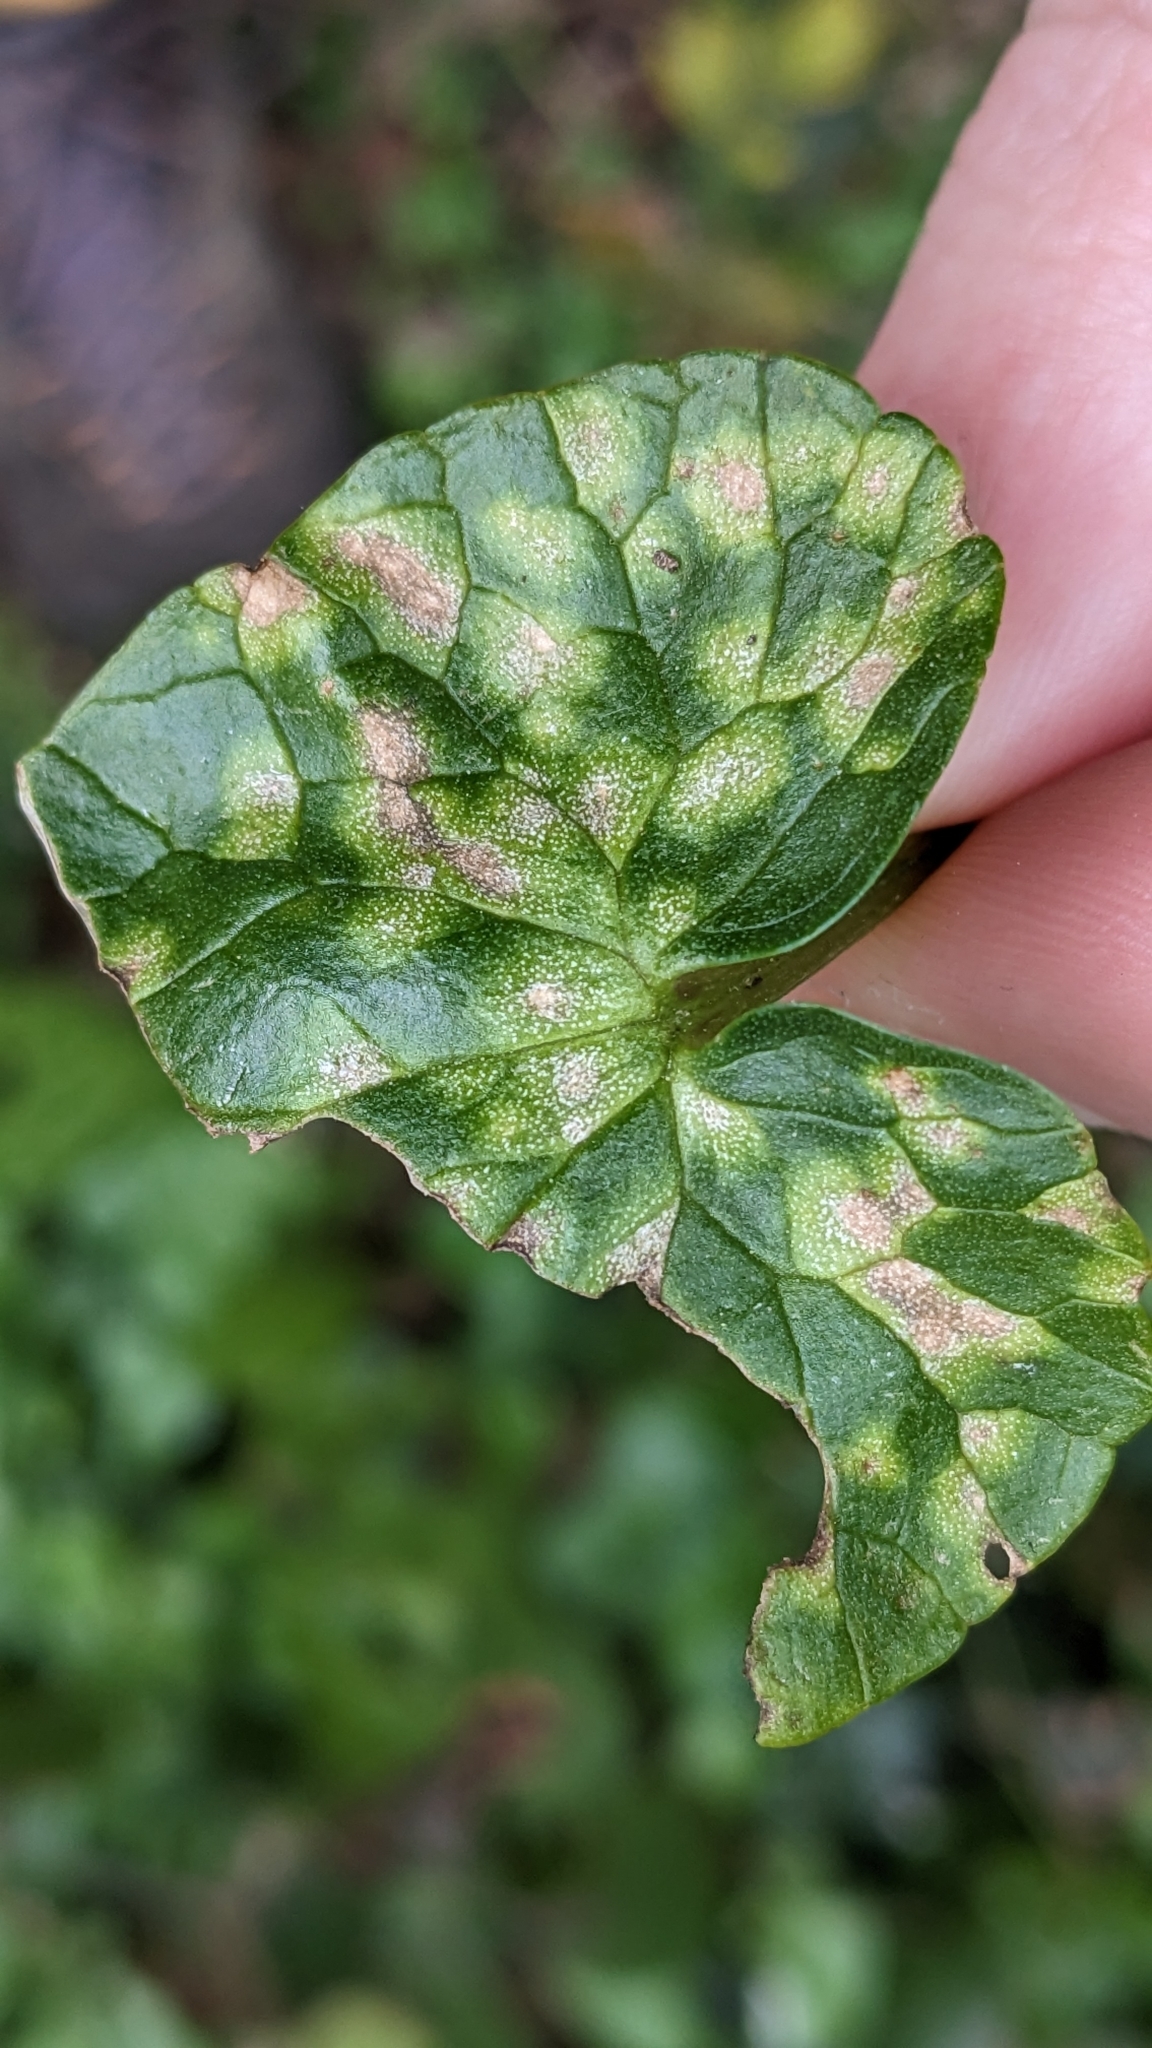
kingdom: Fungi
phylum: Basidiomycota
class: Exobasidiomycetes
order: Entylomatales
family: Entylomataceae
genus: Entyloma
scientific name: Entyloma ficariae
